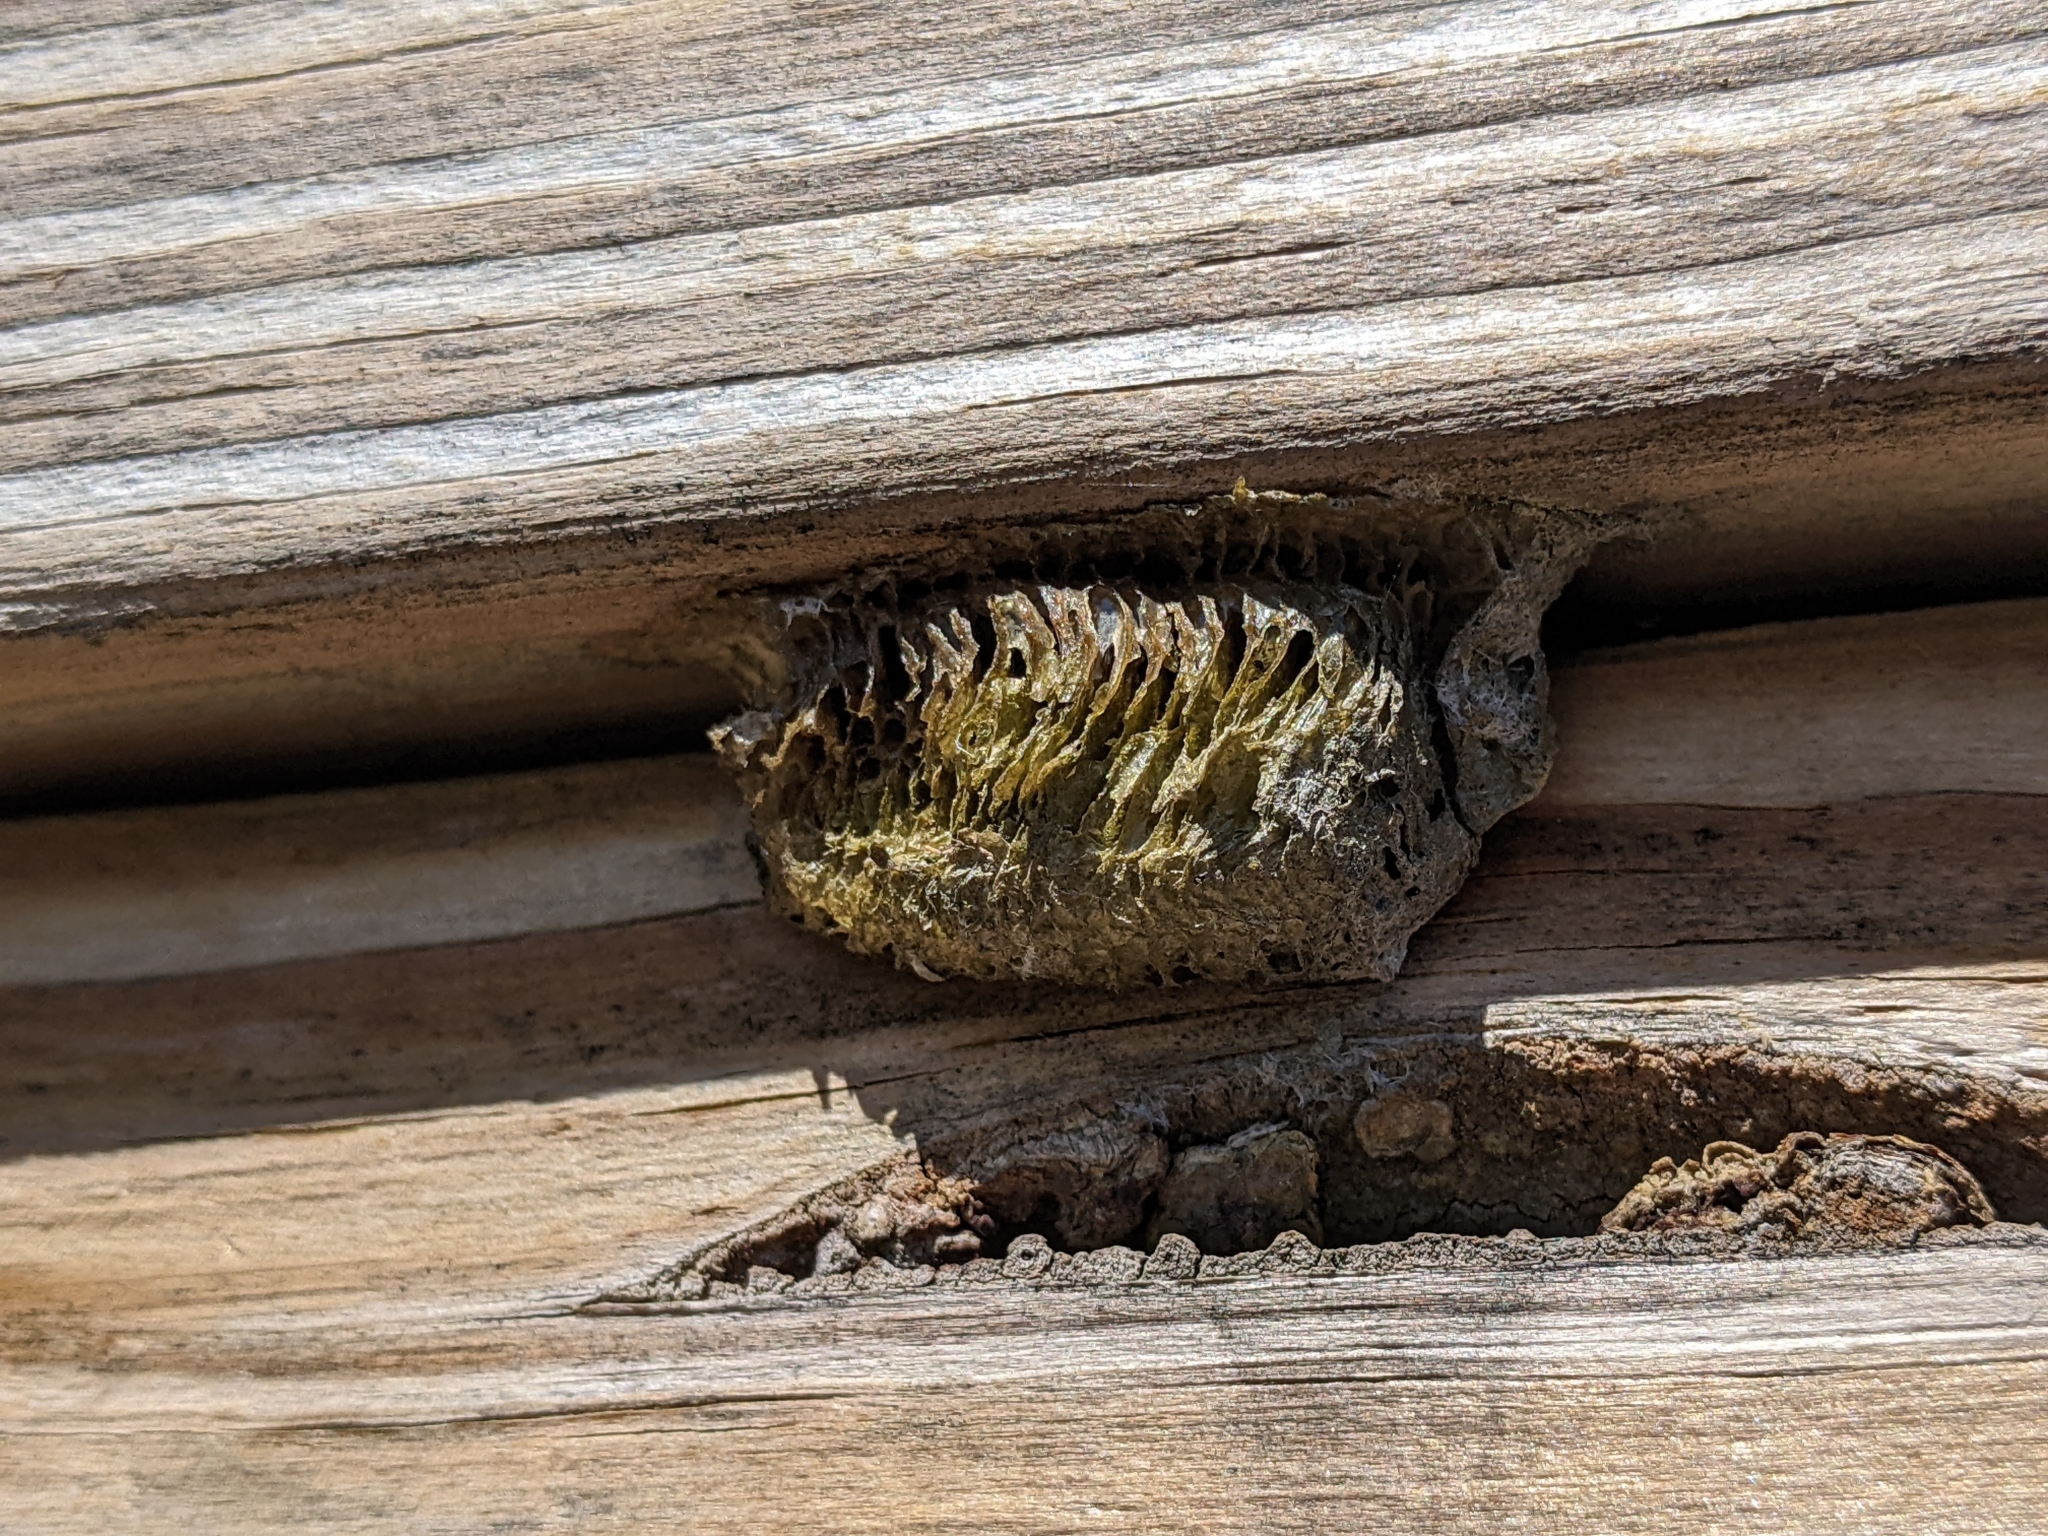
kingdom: Animalia
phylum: Arthropoda
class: Insecta
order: Mantodea
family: Mantidae
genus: Mantis
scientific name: Mantis religiosa
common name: Praying mantis
